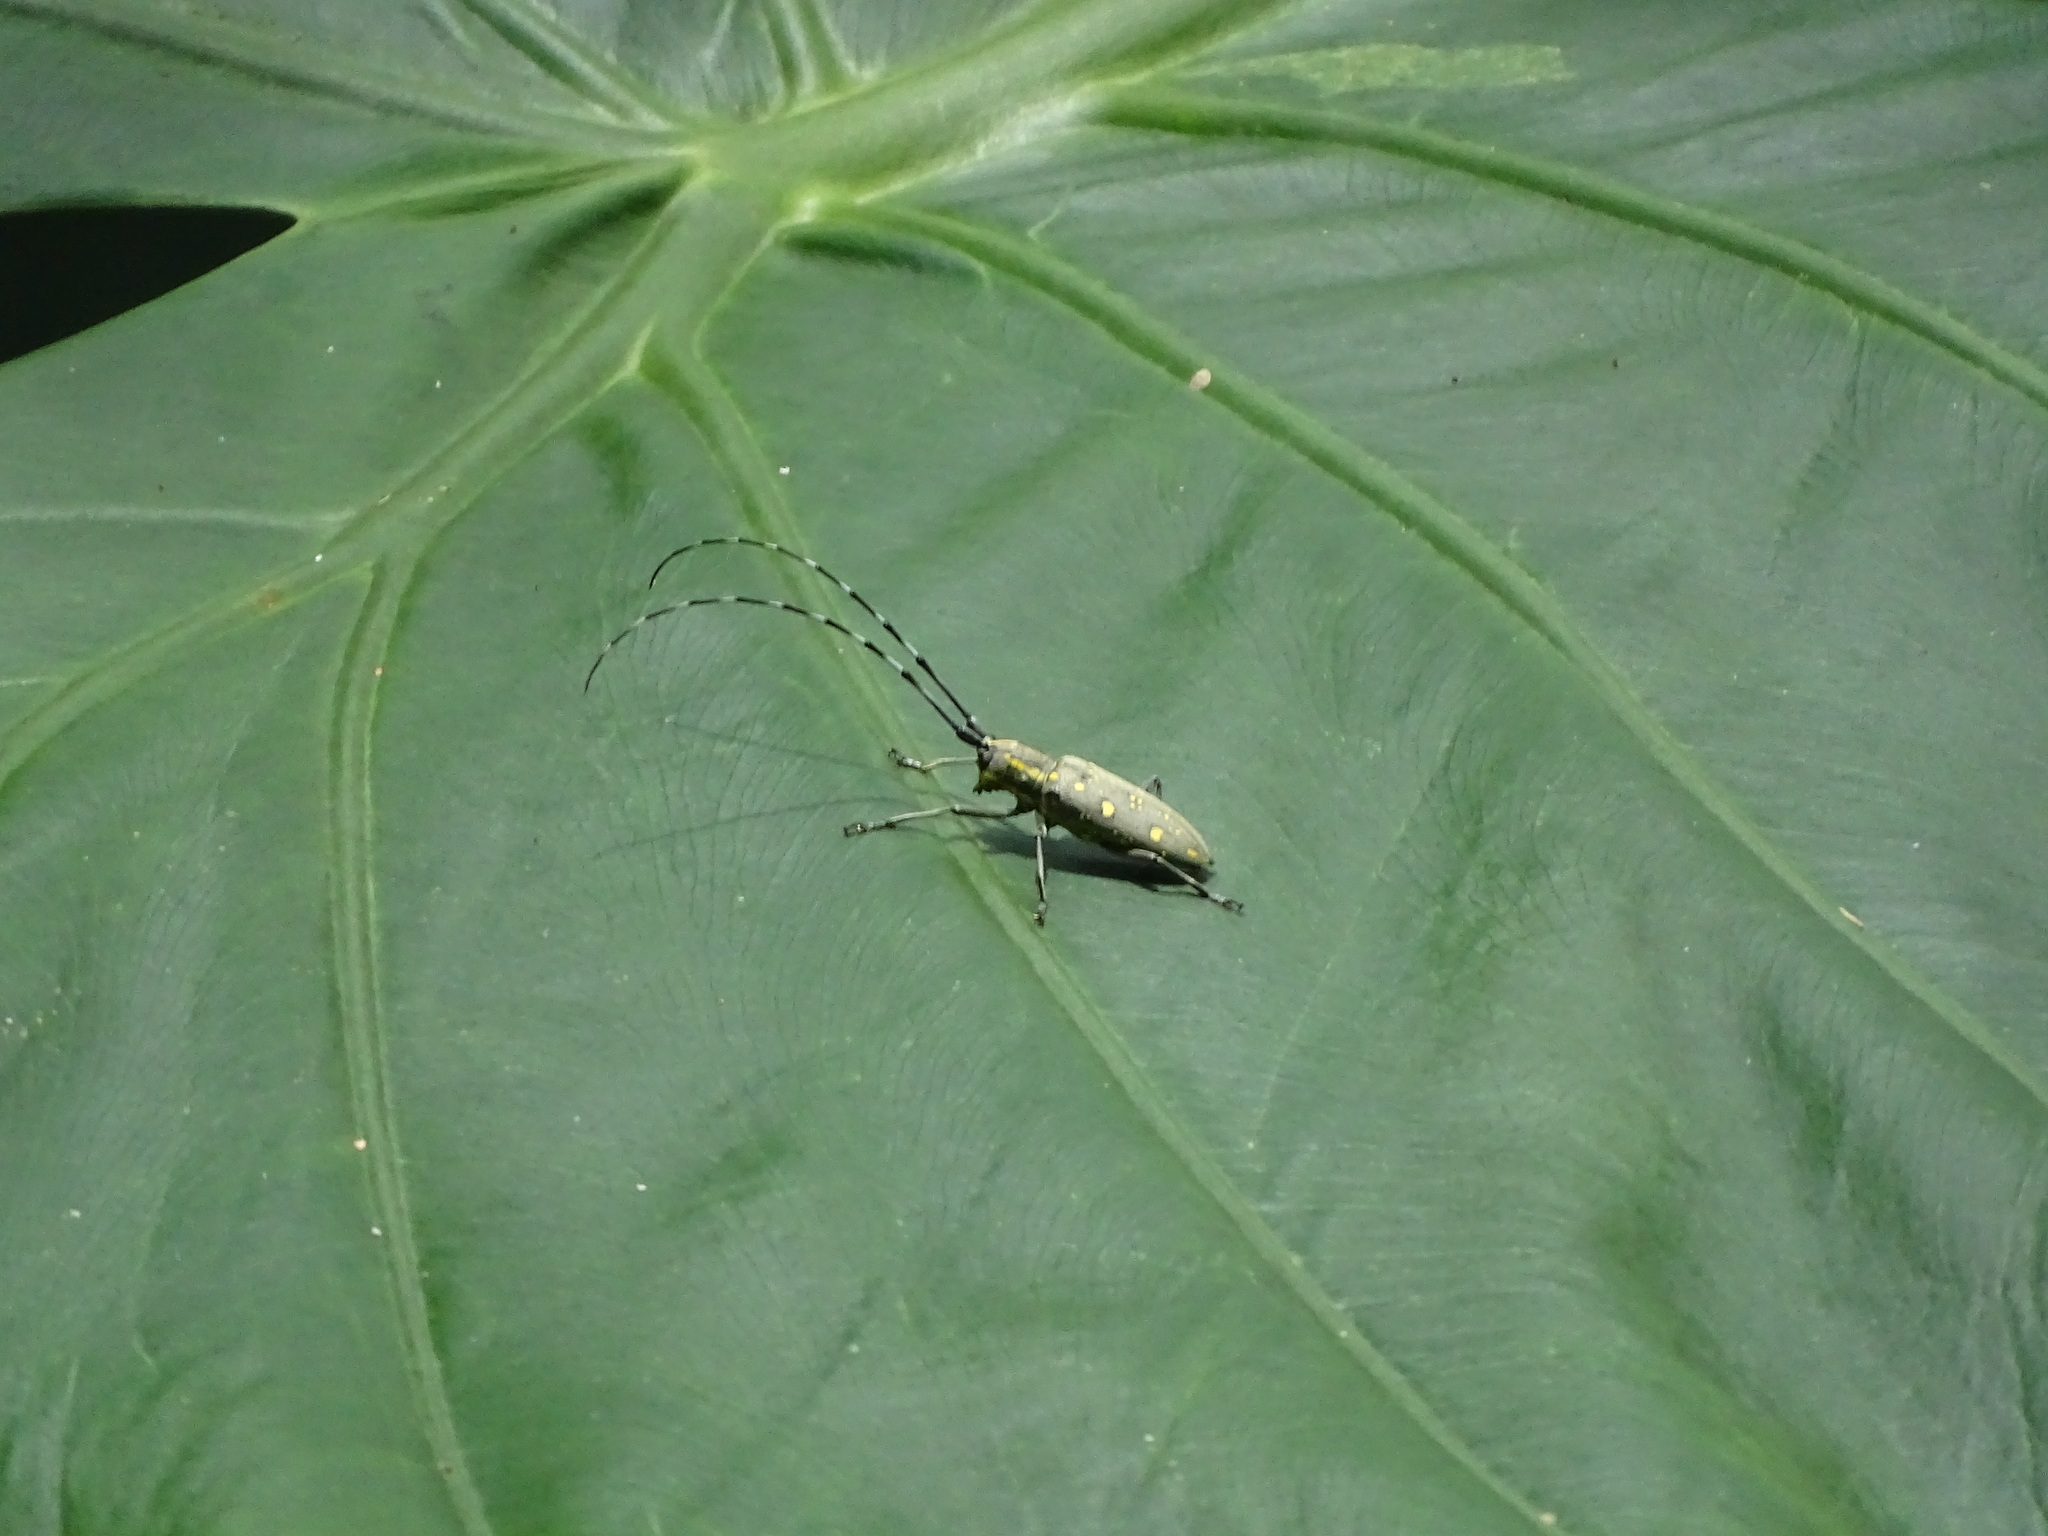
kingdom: Animalia
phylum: Arthropoda
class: Insecta
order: Coleoptera
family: Cerambycidae
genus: Psacothea
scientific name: Psacothea hilaris
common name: Yellow-spotted longicorn beetle
